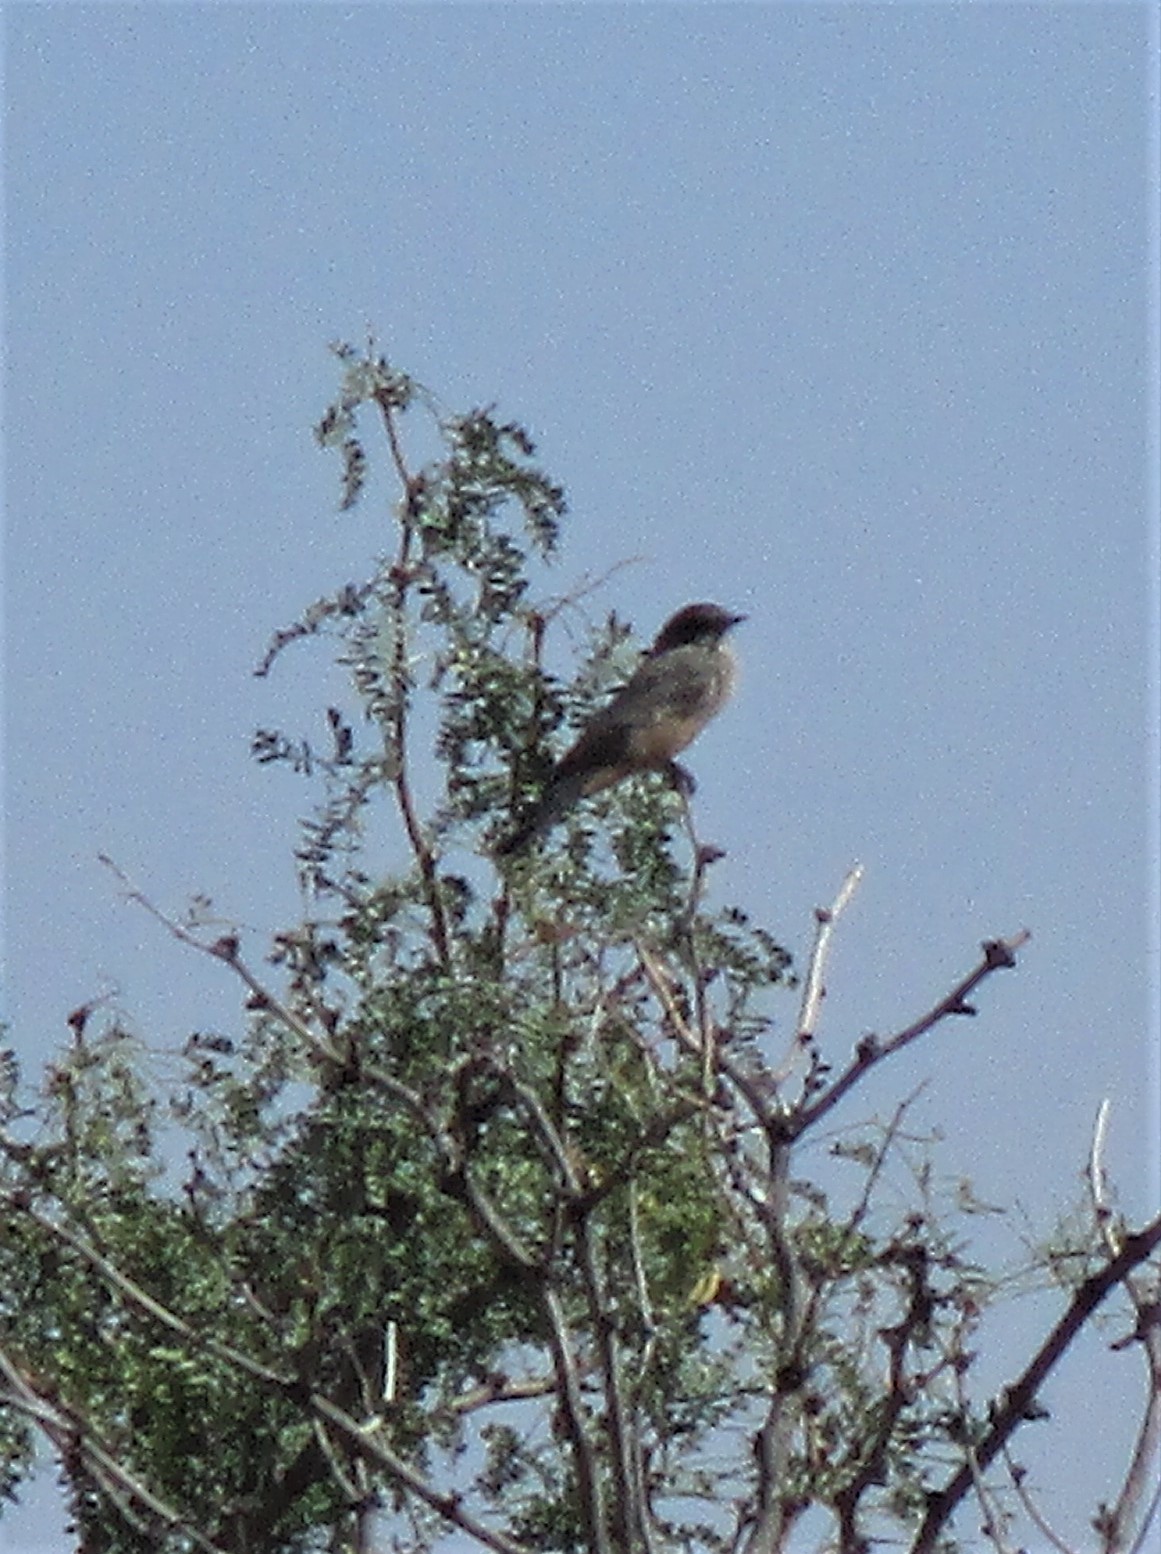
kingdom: Animalia
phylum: Chordata
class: Aves
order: Passeriformes
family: Tyrannidae
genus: Sayornis
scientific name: Sayornis saya
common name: Say's phoebe
